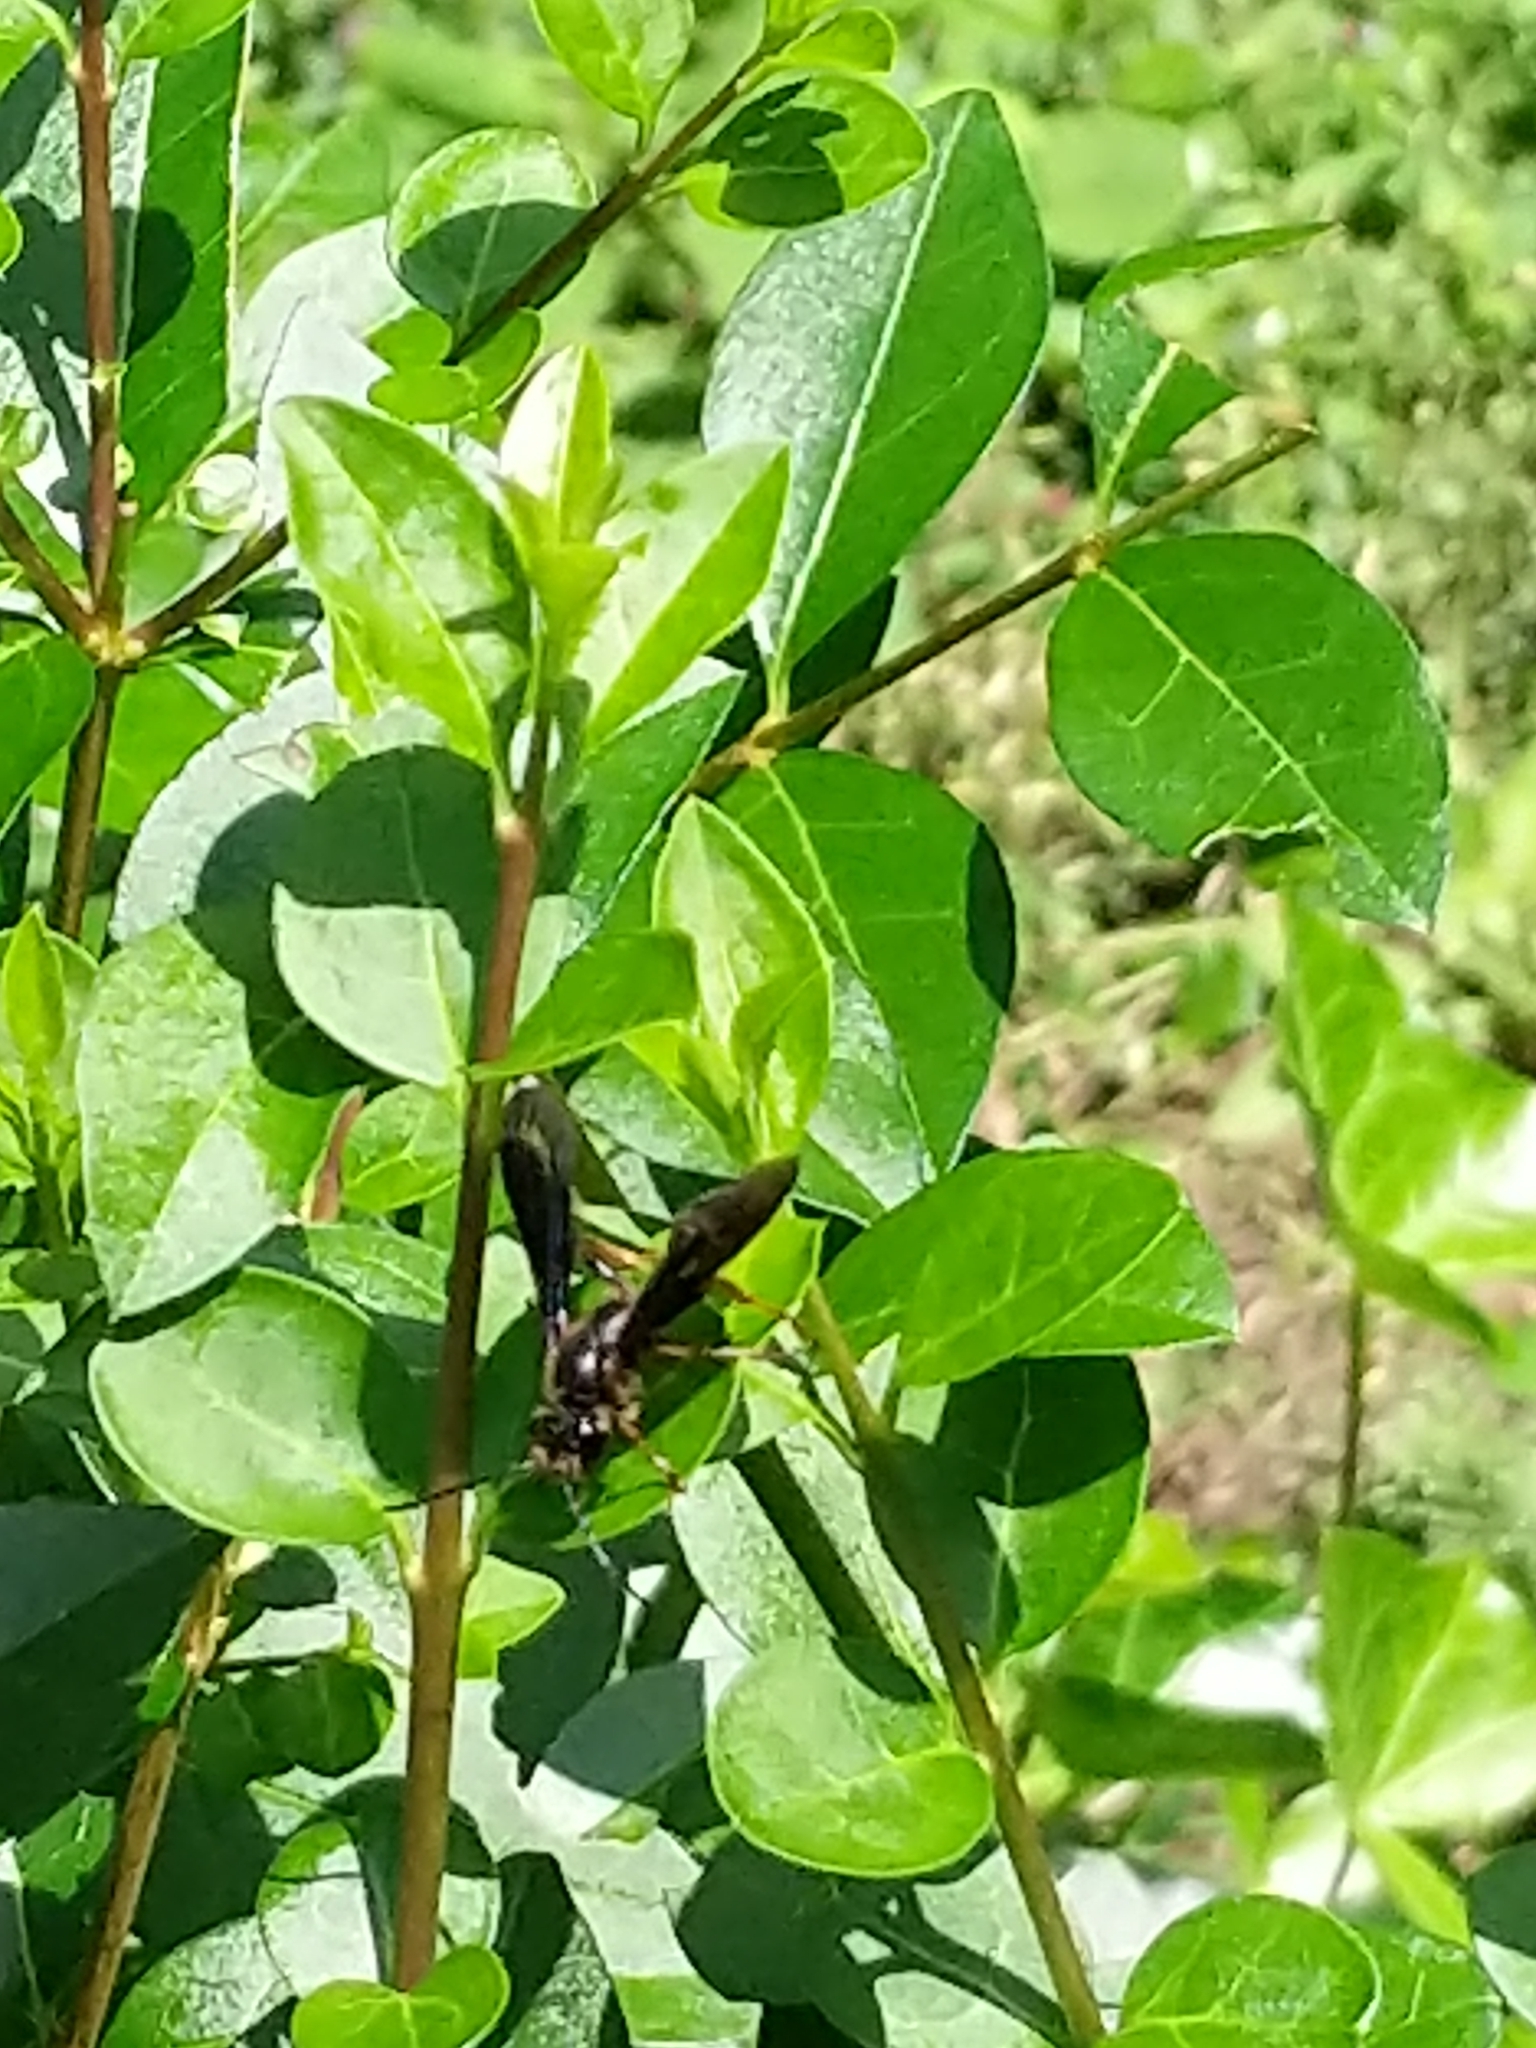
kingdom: Animalia
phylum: Arthropoda
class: Insecta
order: Hymenoptera
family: Sphecidae
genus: Isodontia
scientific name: Isodontia auripes
